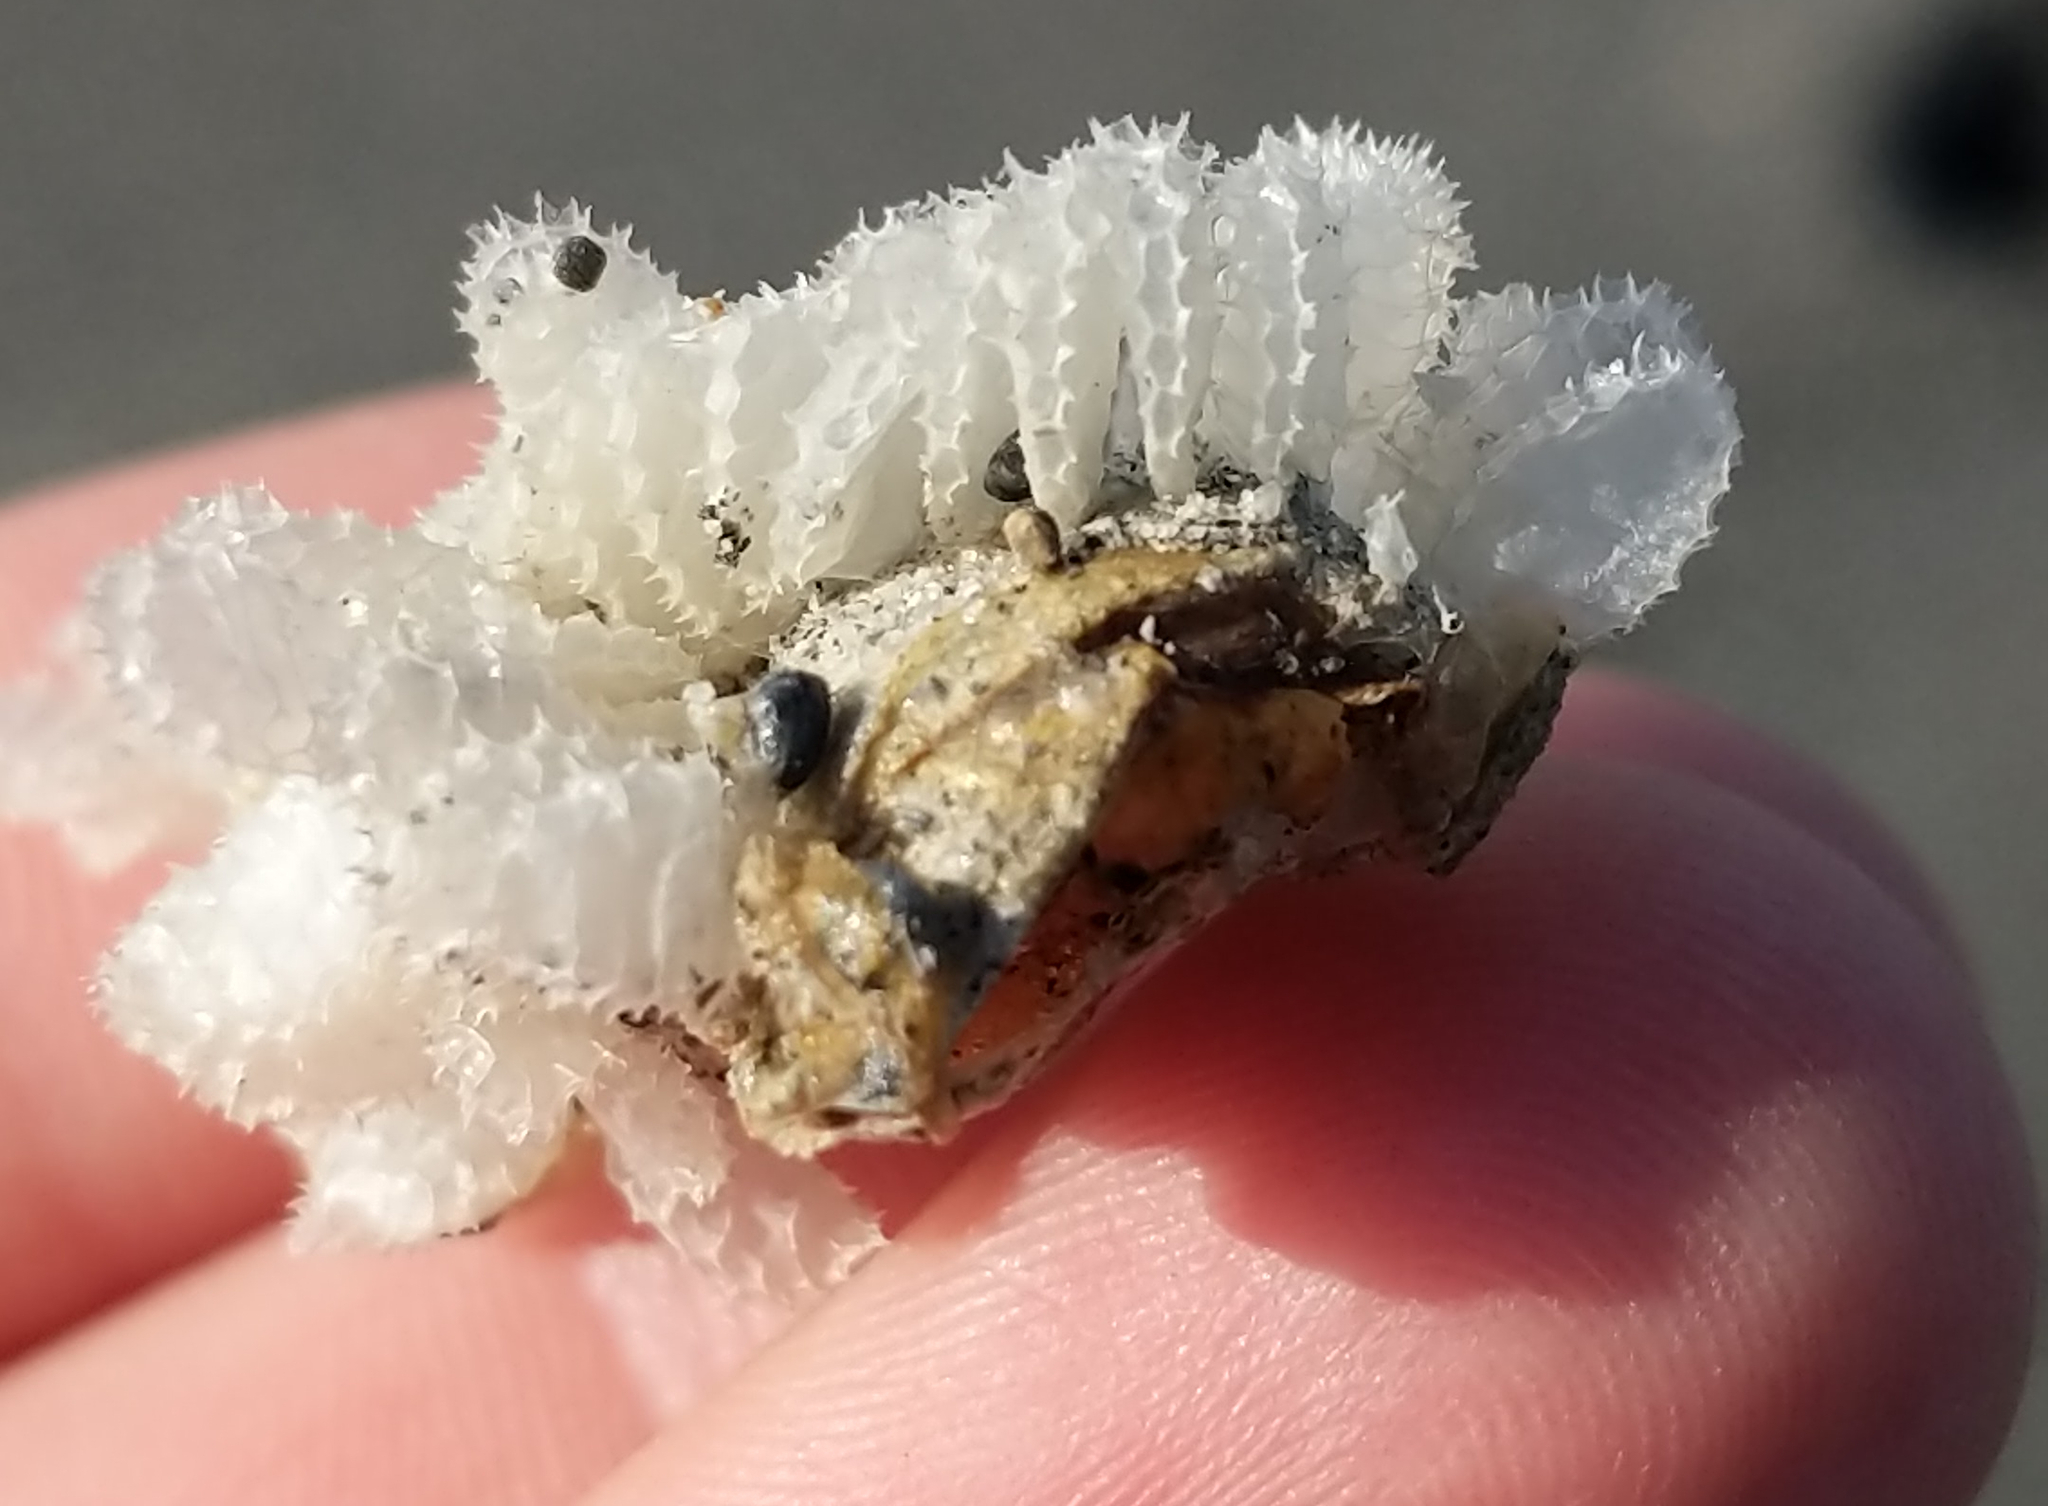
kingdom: Animalia
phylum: Mollusca
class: Gastropoda
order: Neogastropoda
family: Nassariidae
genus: Caesia
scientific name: Caesia fossata
